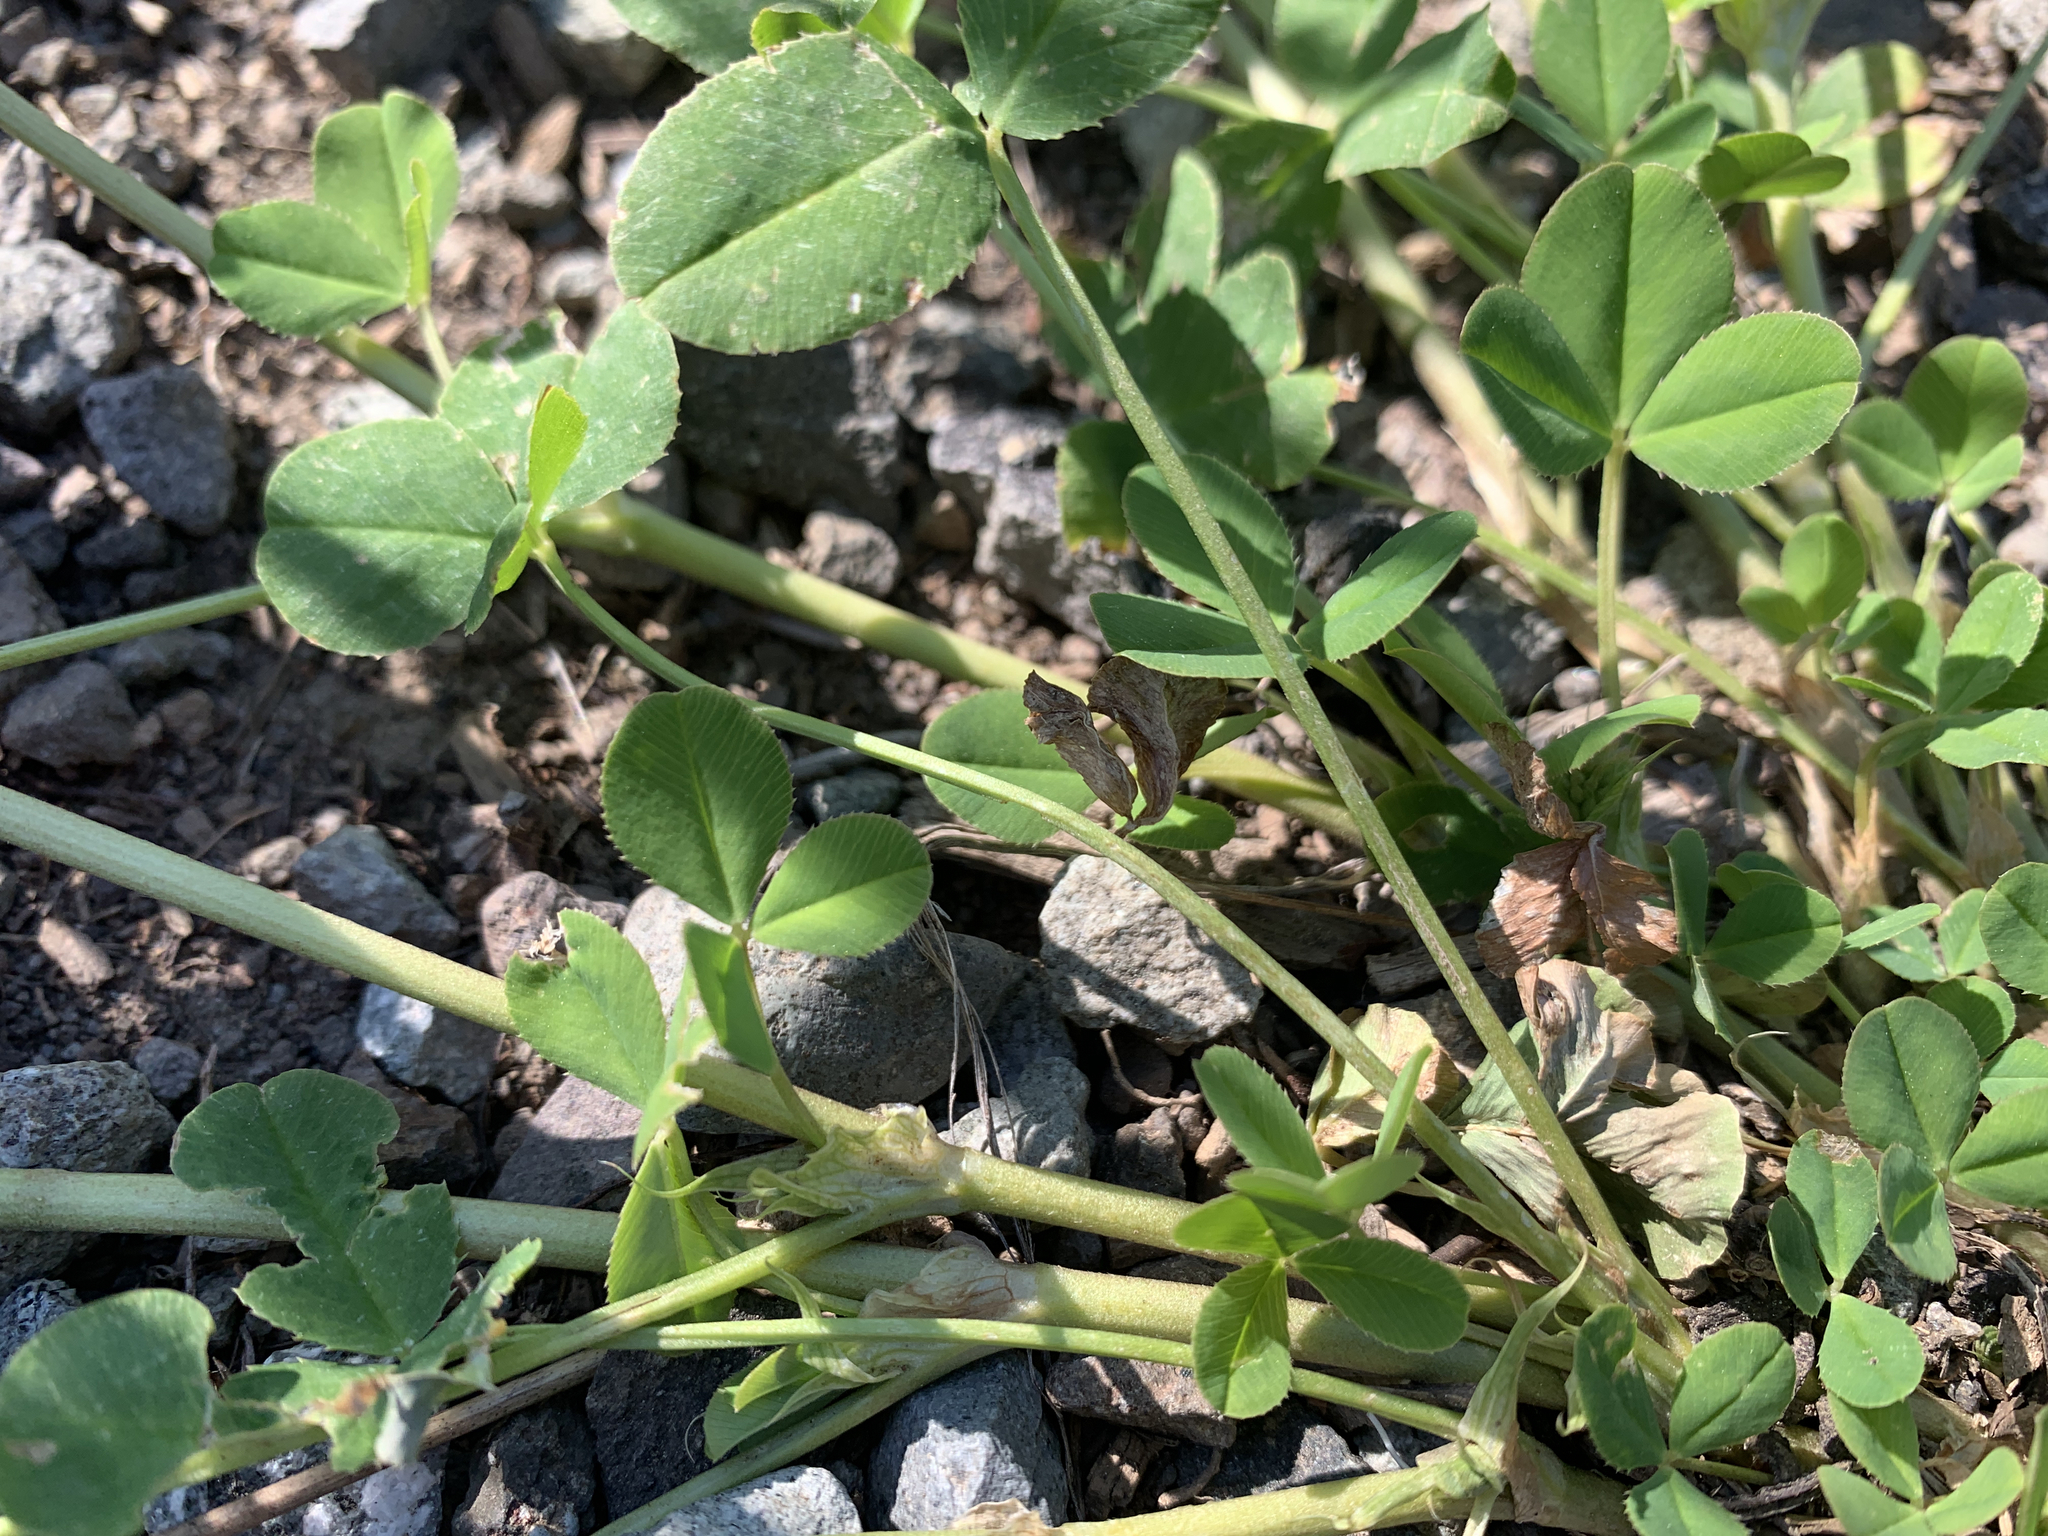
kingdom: Plantae
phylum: Tracheophyta
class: Magnoliopsida
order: Fabales
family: Fabaceae
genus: Trifolium
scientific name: Trifolium hybridum
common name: Alsike clover
